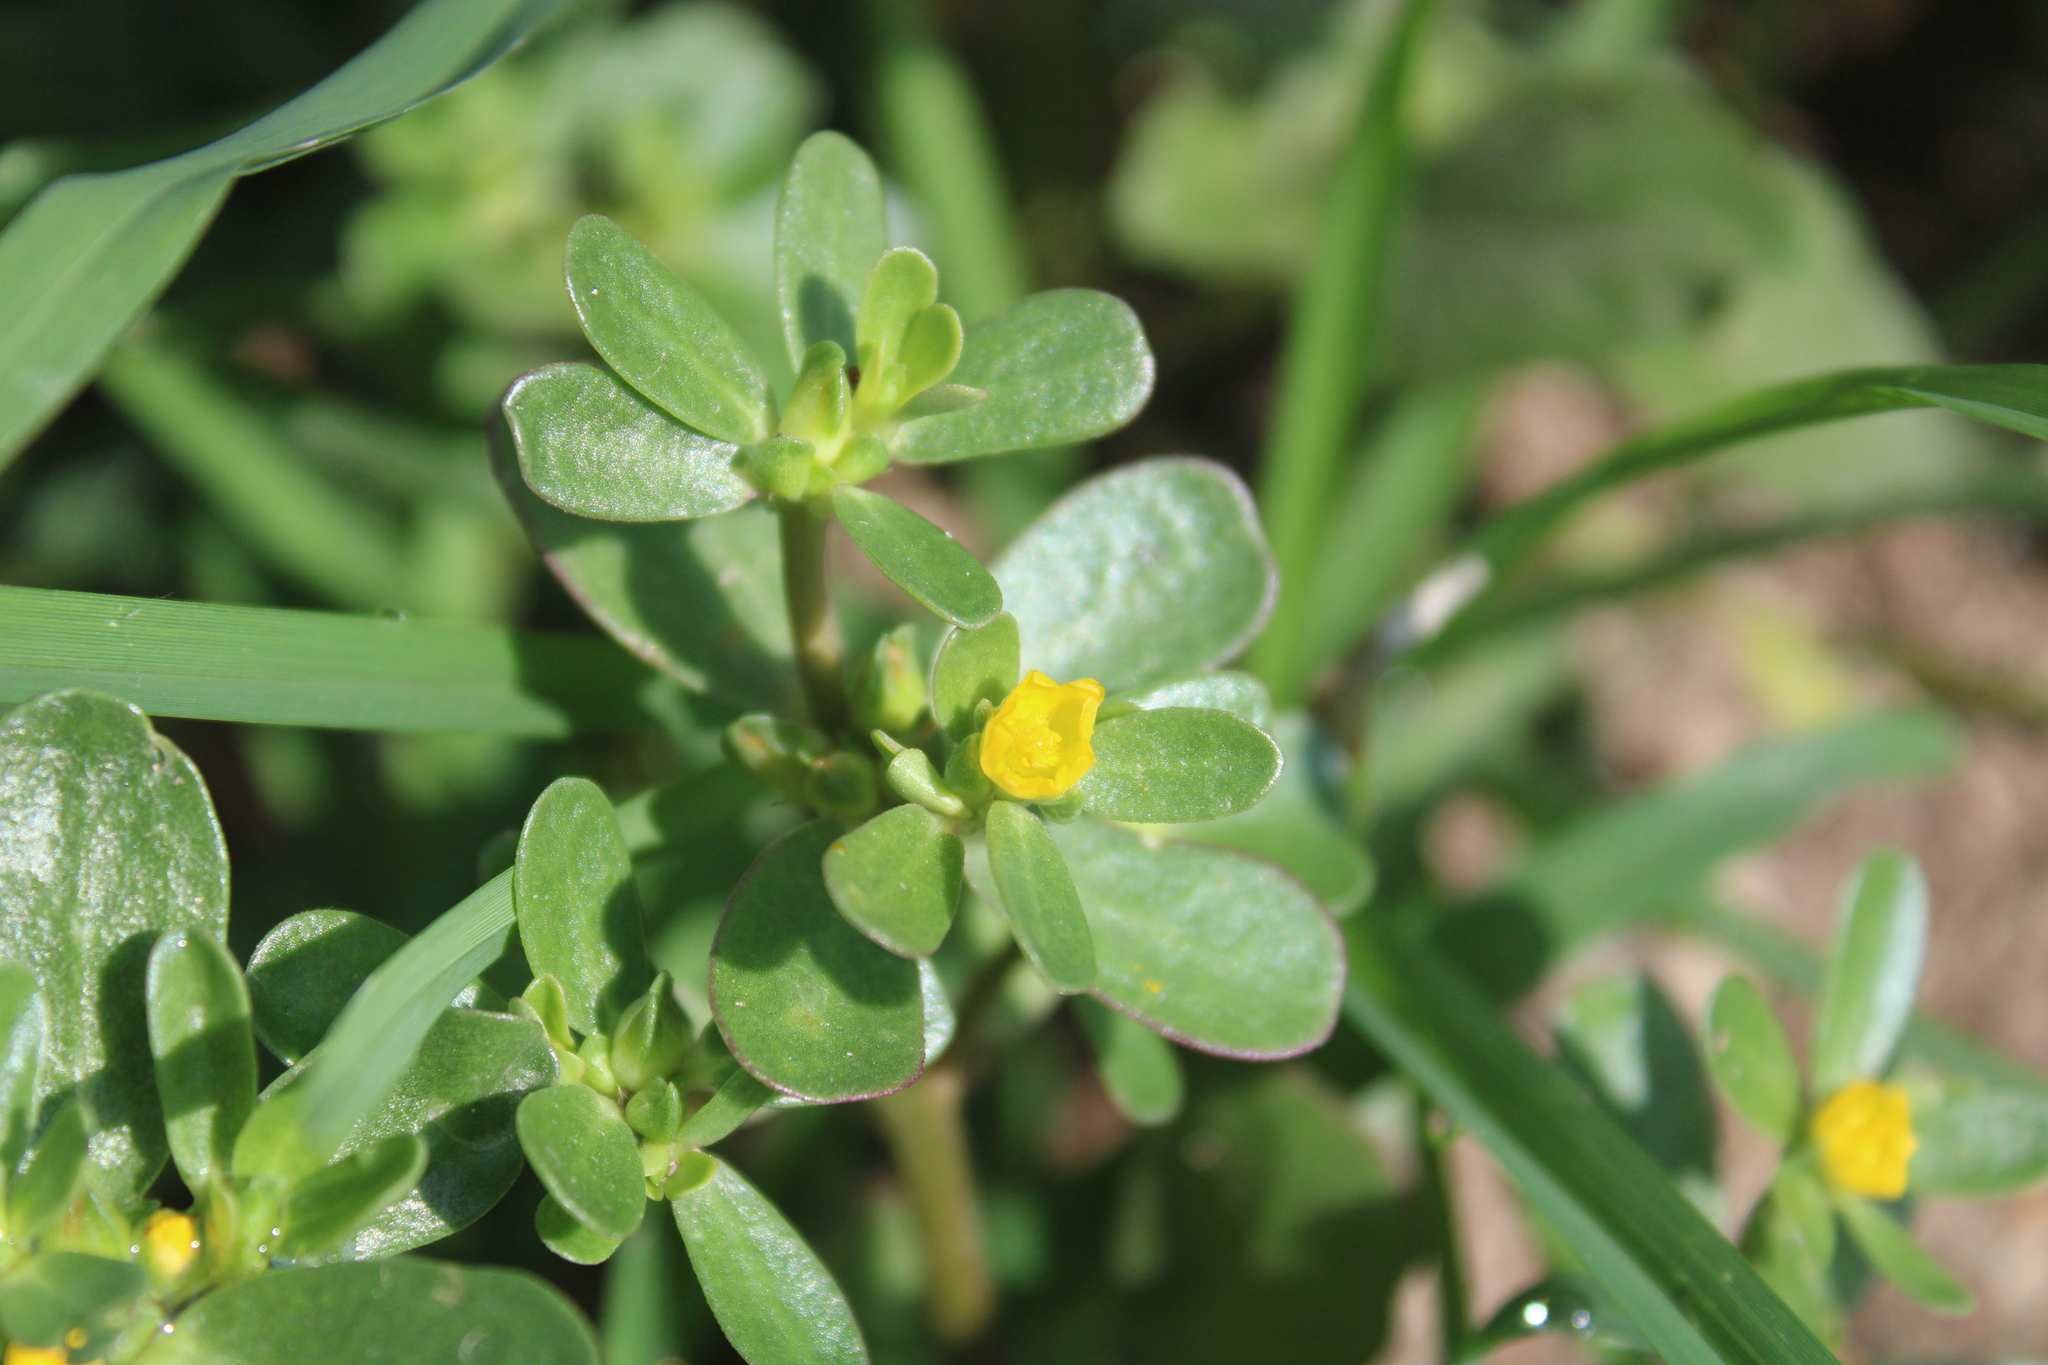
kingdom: Plantae
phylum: Tracheophyta
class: Magnoliopsida
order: Caryophyllales
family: Portulacaceae
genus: Portulaca
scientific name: Portulaca oleracea
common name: Common purslane
